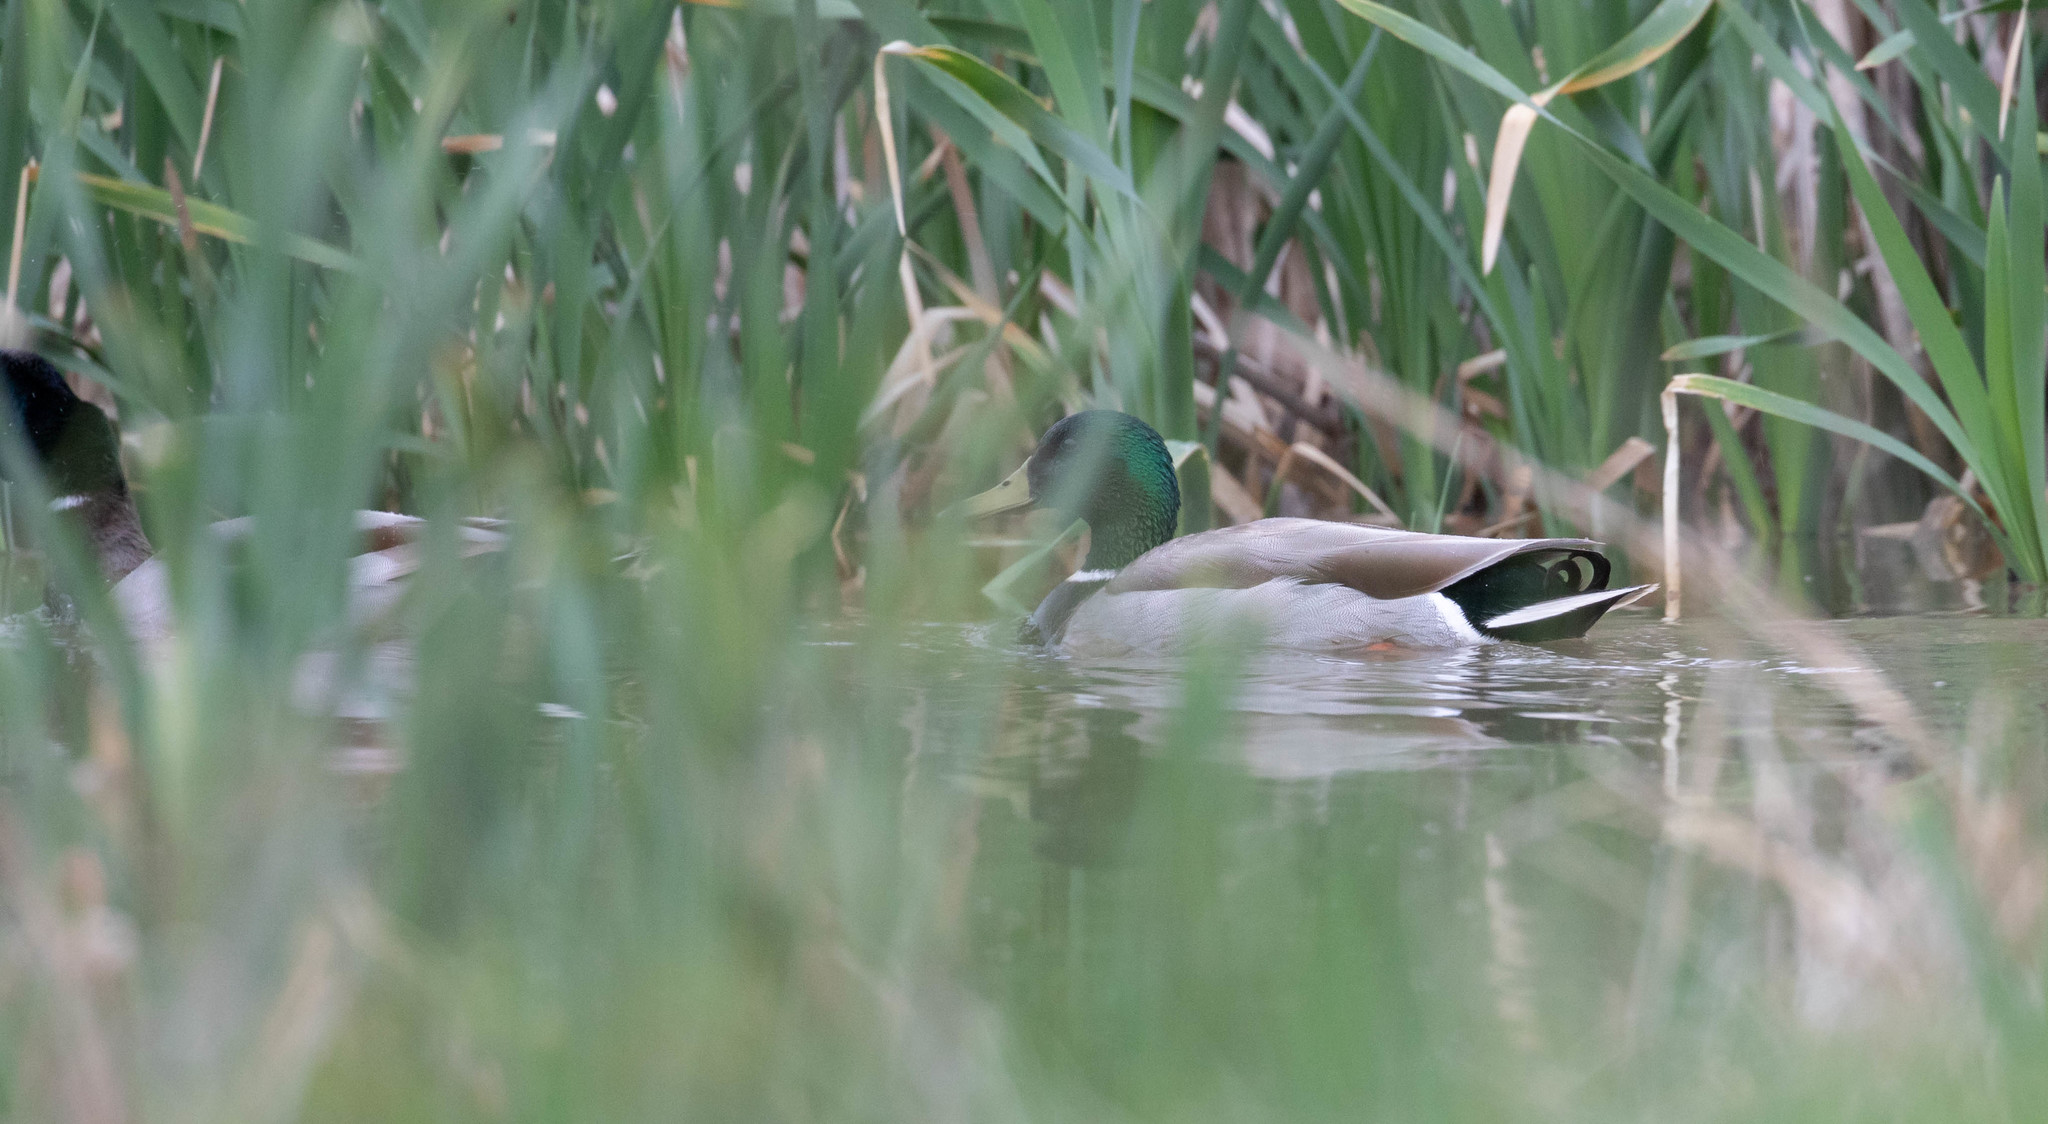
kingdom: Animalia
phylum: Chordata
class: Aves
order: Anseriformes
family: Anatidae
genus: Anas
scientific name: Anas platyrhynchos
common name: Mallard
